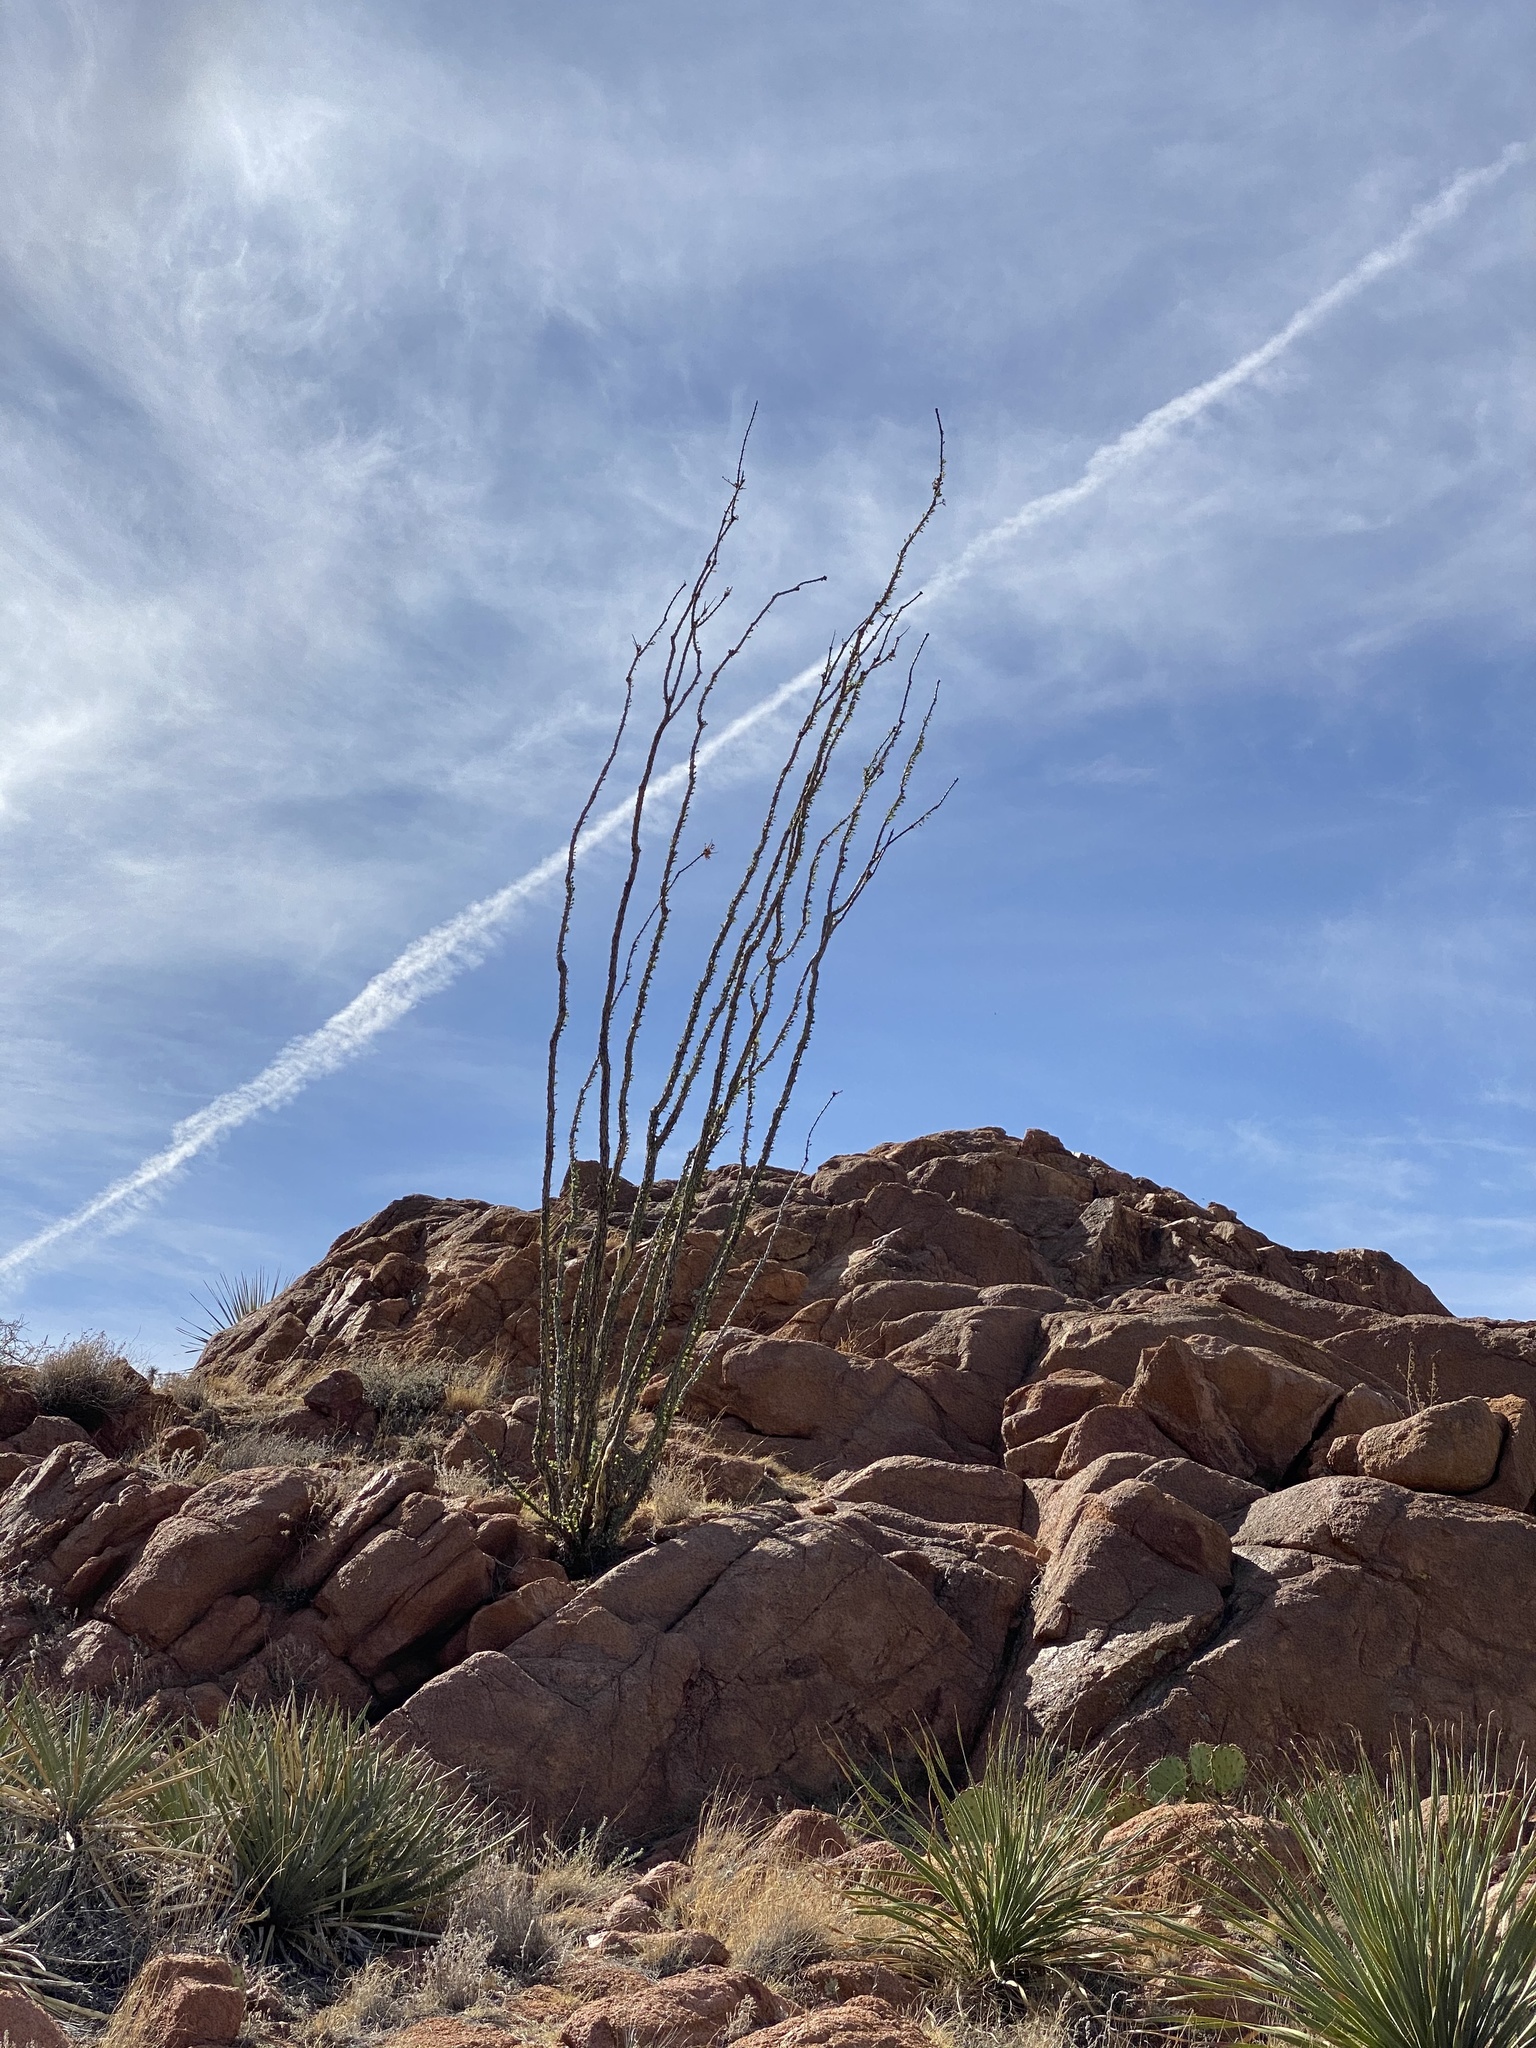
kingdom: Plantae
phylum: Tracheophyta
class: Magnoliopsida
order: Ericales
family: Fouquieriaceae
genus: Fouquieria
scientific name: Fouquieria splendens
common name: Vine-cactus
